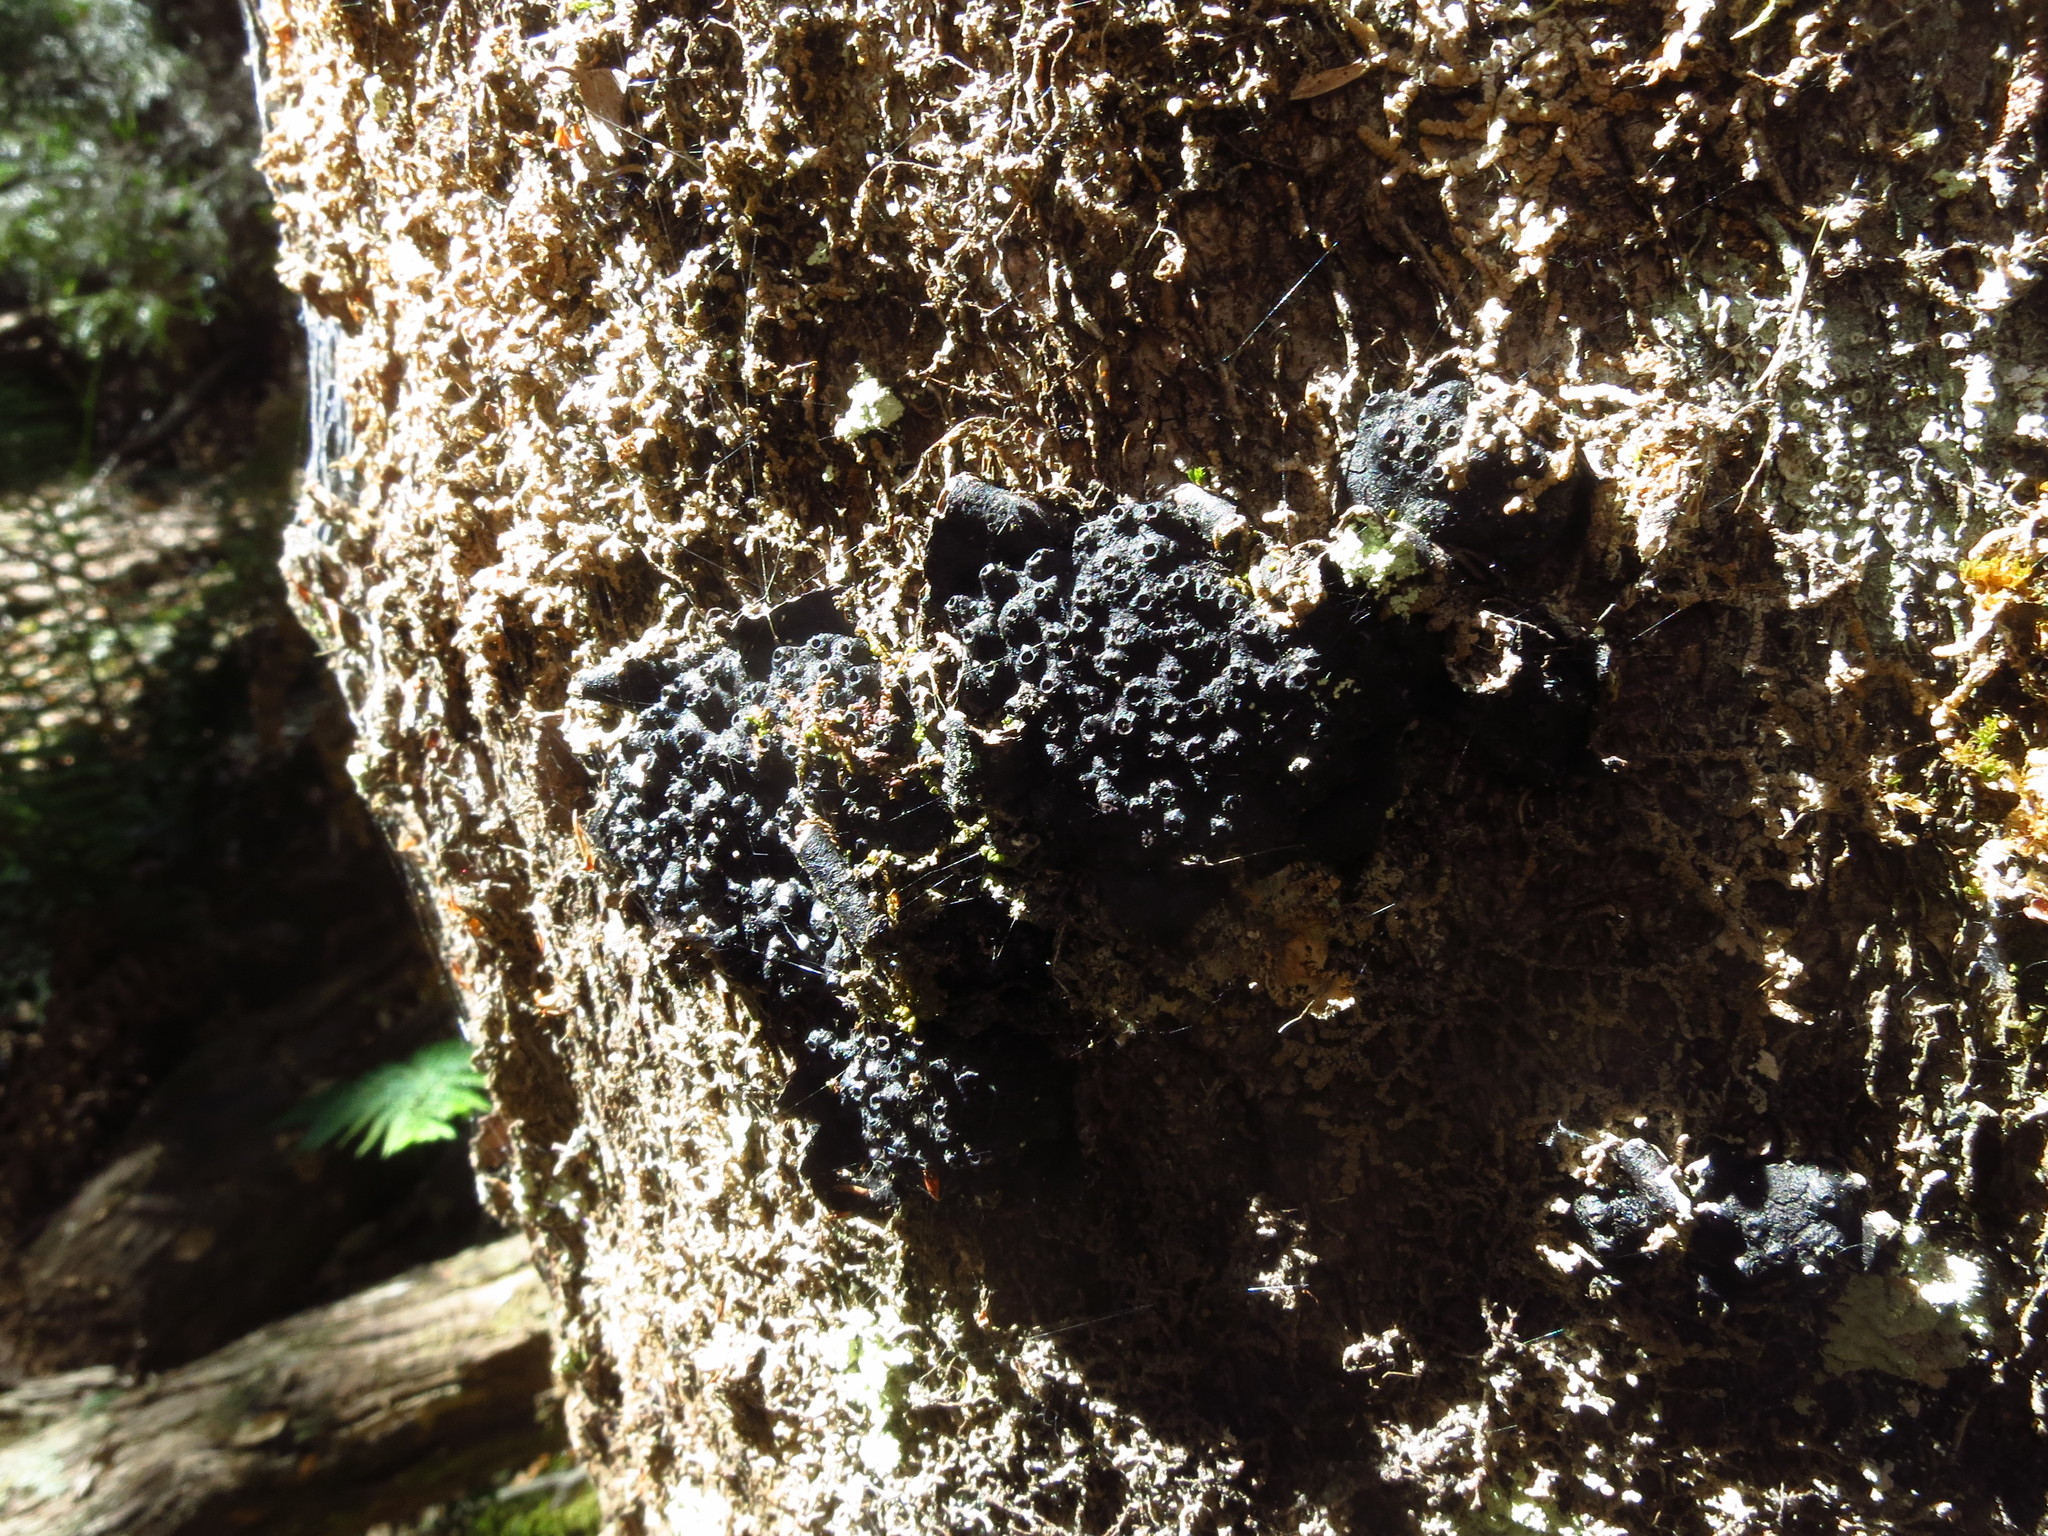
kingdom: Fungi
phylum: Ascomycota
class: Sordariomycetes
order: Xylariales
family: Hypoxylaceae
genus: Annulohypoxylon
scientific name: Annulohypoxylon hians
